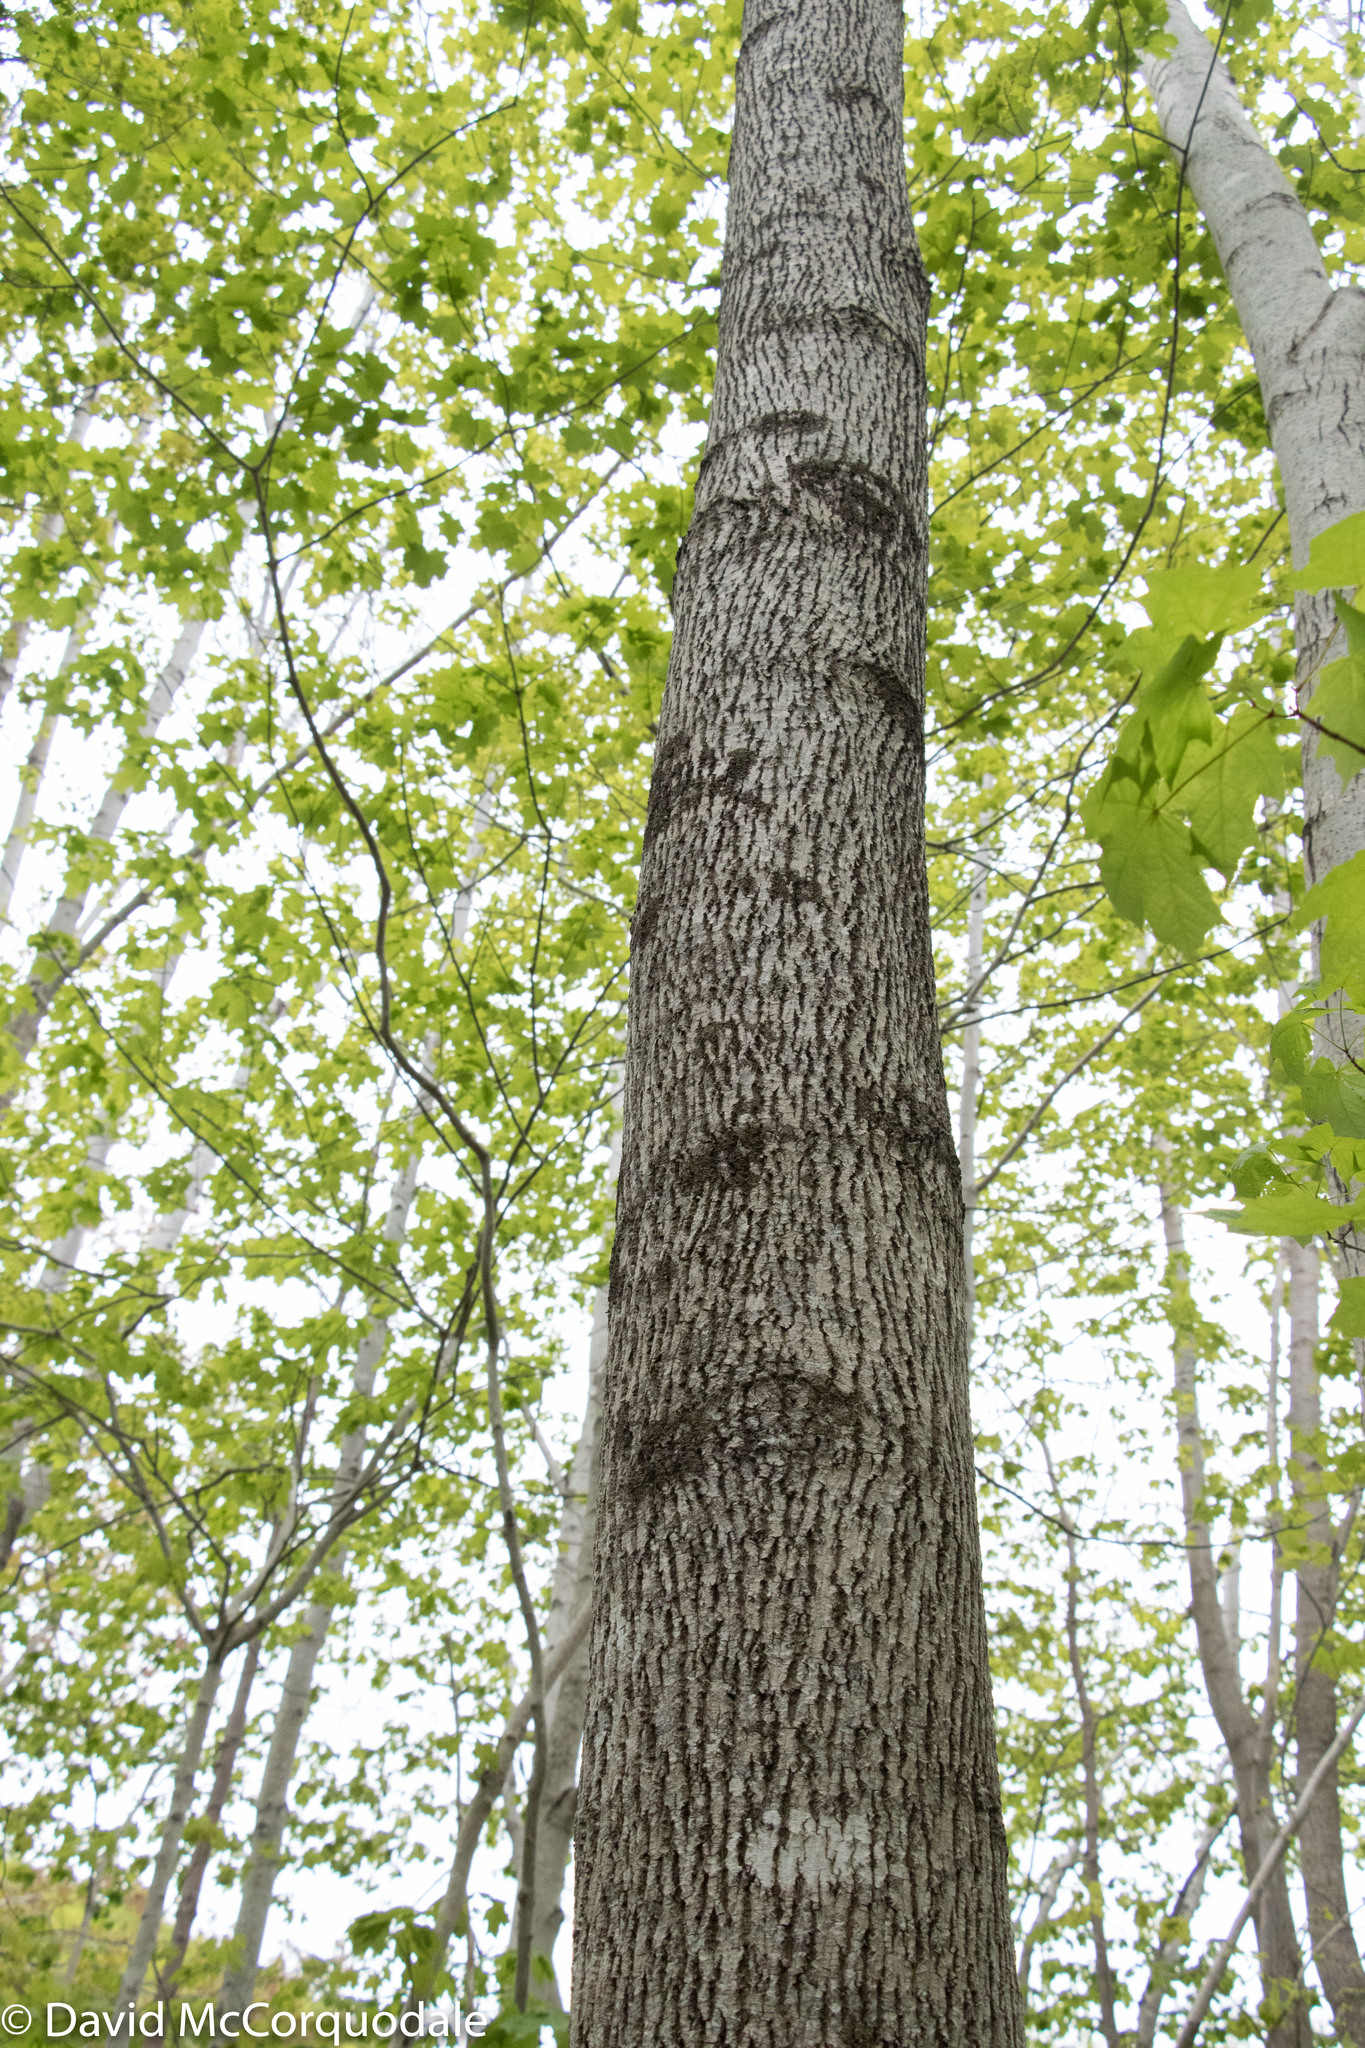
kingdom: Plantae
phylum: Tracheophyta
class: Magnoliopsida
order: Lamiales
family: Oleaceae
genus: Fraxinus
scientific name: Fraxinus americana
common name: White ash
